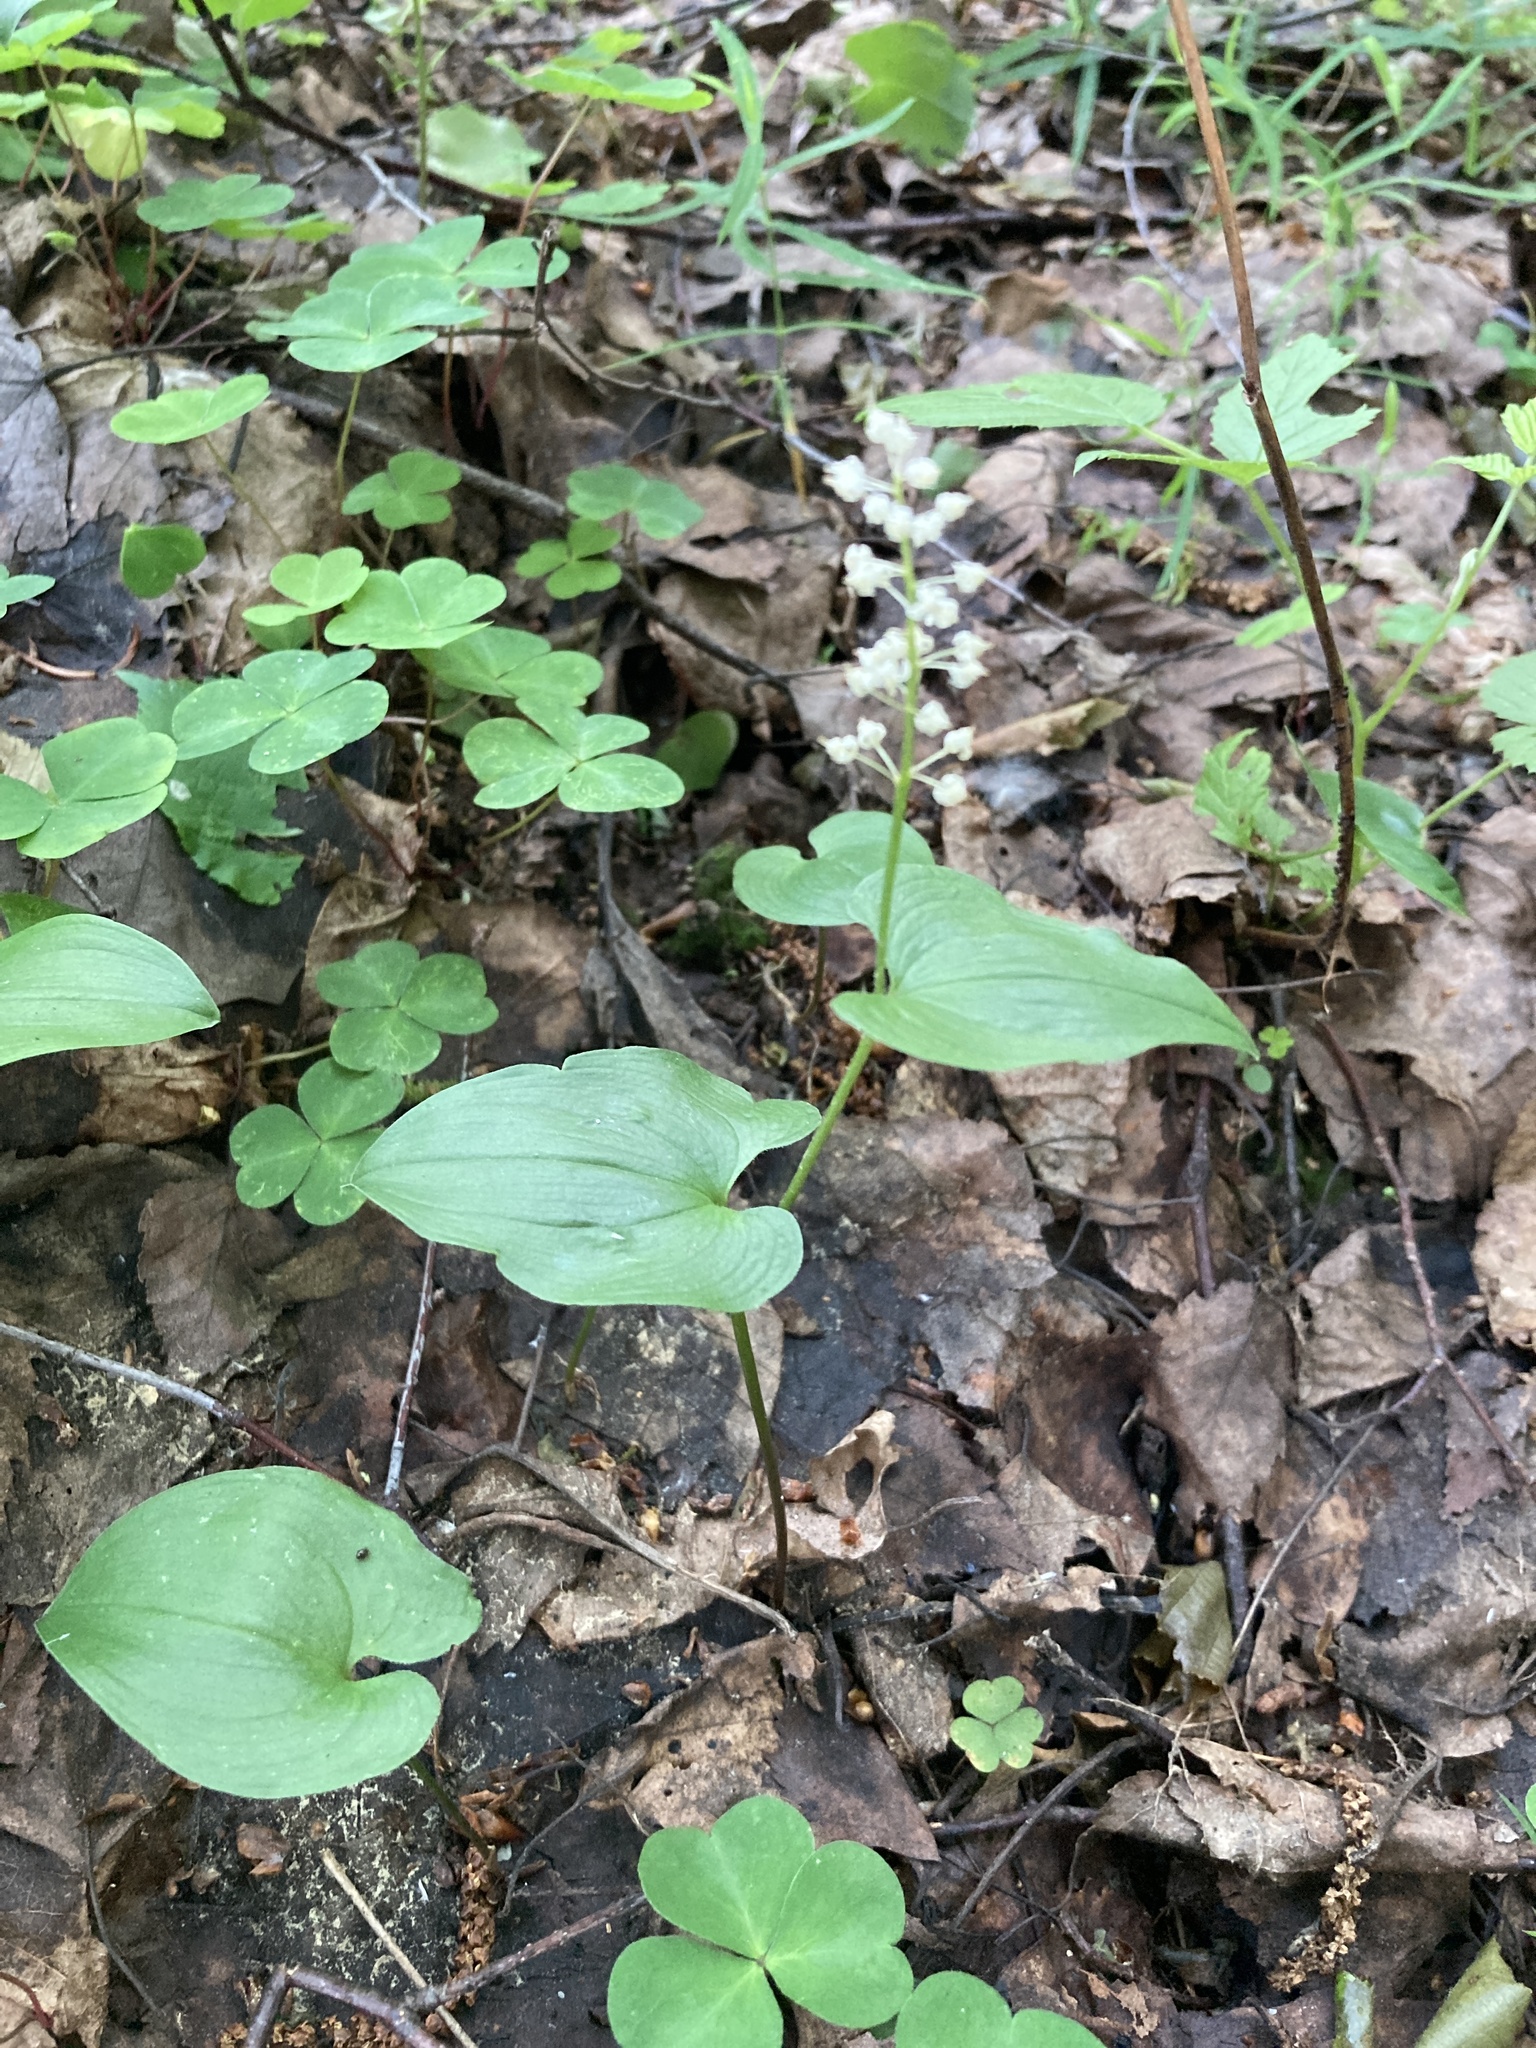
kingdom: Plantae
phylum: Tracheophyta
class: Liliopsida
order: Asparagales
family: Asparagaceae
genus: Maianthemum
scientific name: Maianthemum bifolium
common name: May lily
